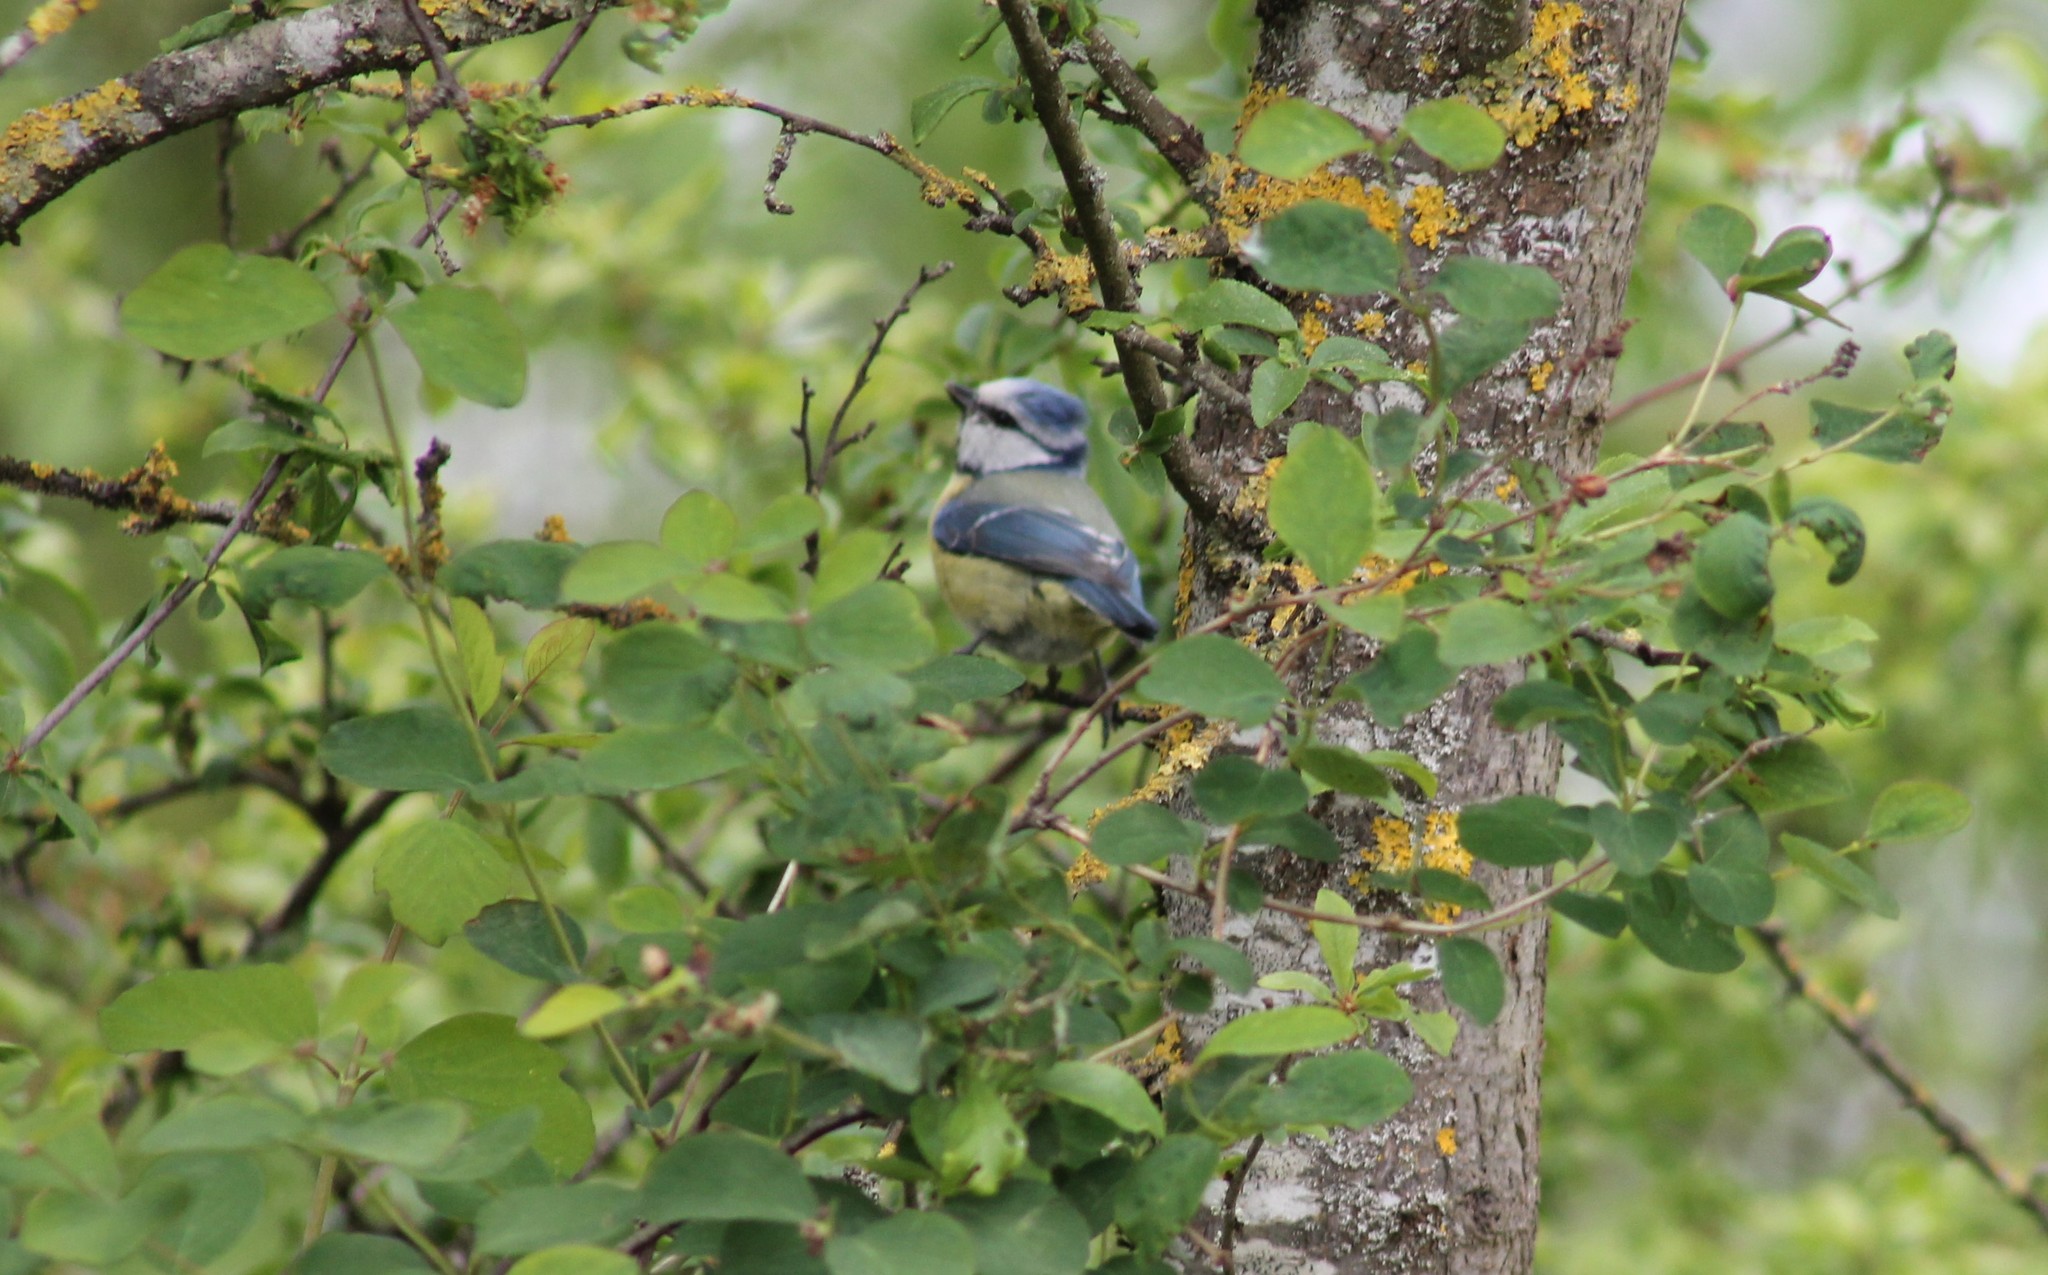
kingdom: Animalia
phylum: Chordata
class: Aves
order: Passeriformes
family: Paridae
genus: Cyanistes
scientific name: Cyanistes caeruleus
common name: Eurasian blue tit
